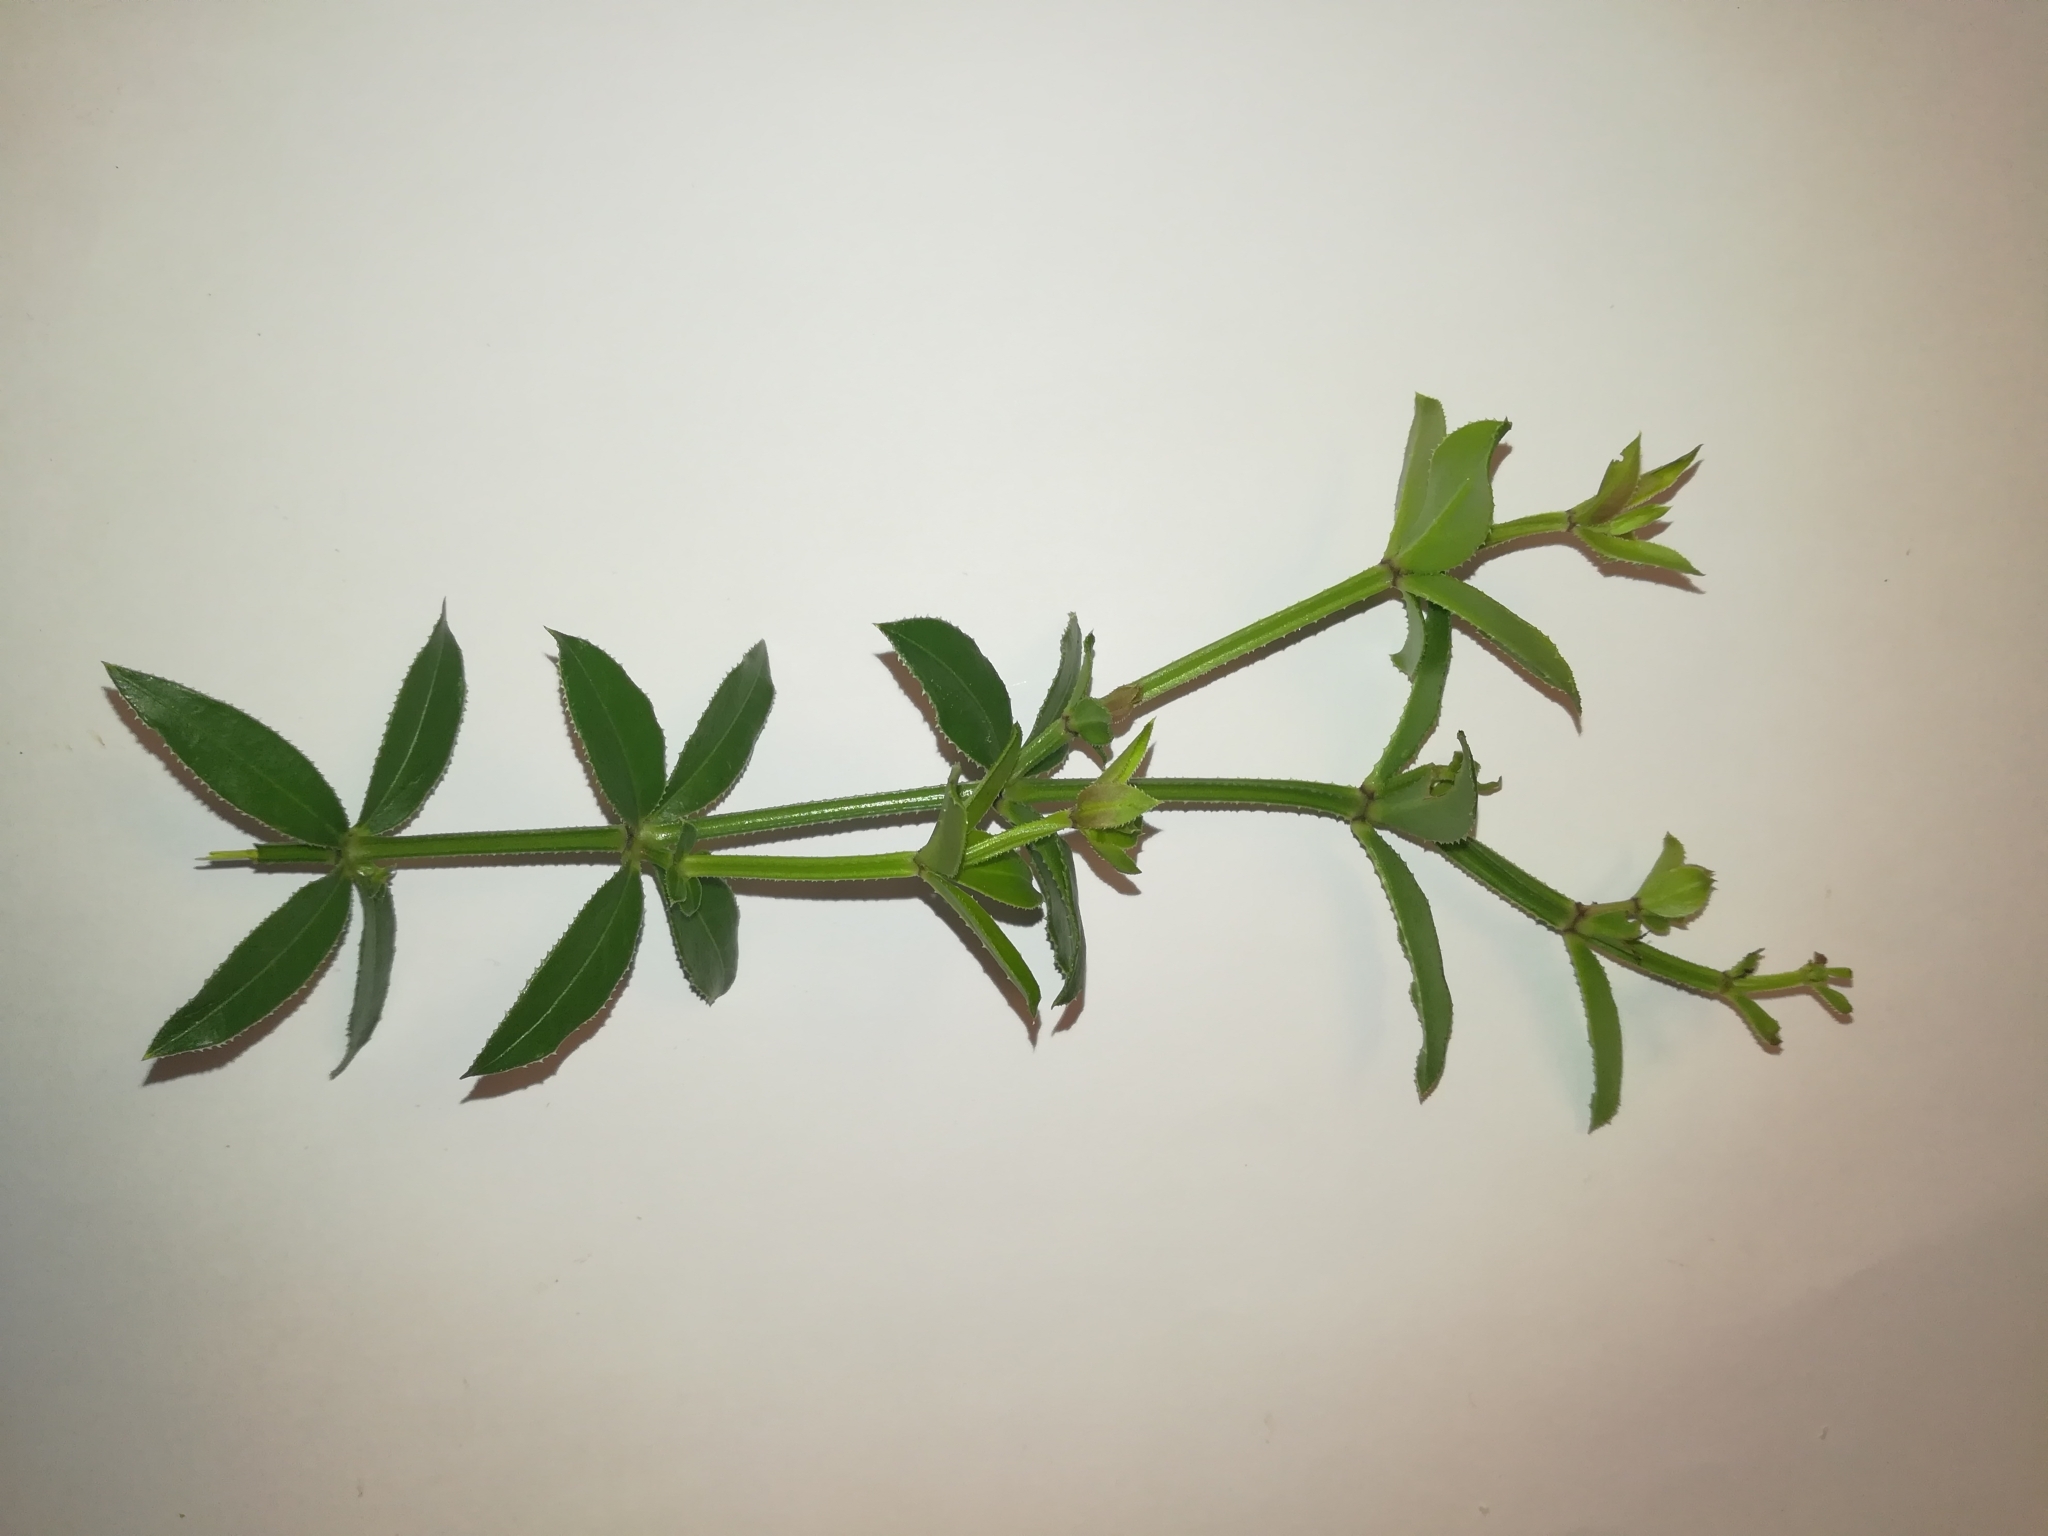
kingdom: Plantae
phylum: Tracheophyta
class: Magnoliopsida
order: Gentianales
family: Rubiaceae
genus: Rubia
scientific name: Rubia peregrina
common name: Wild madder
